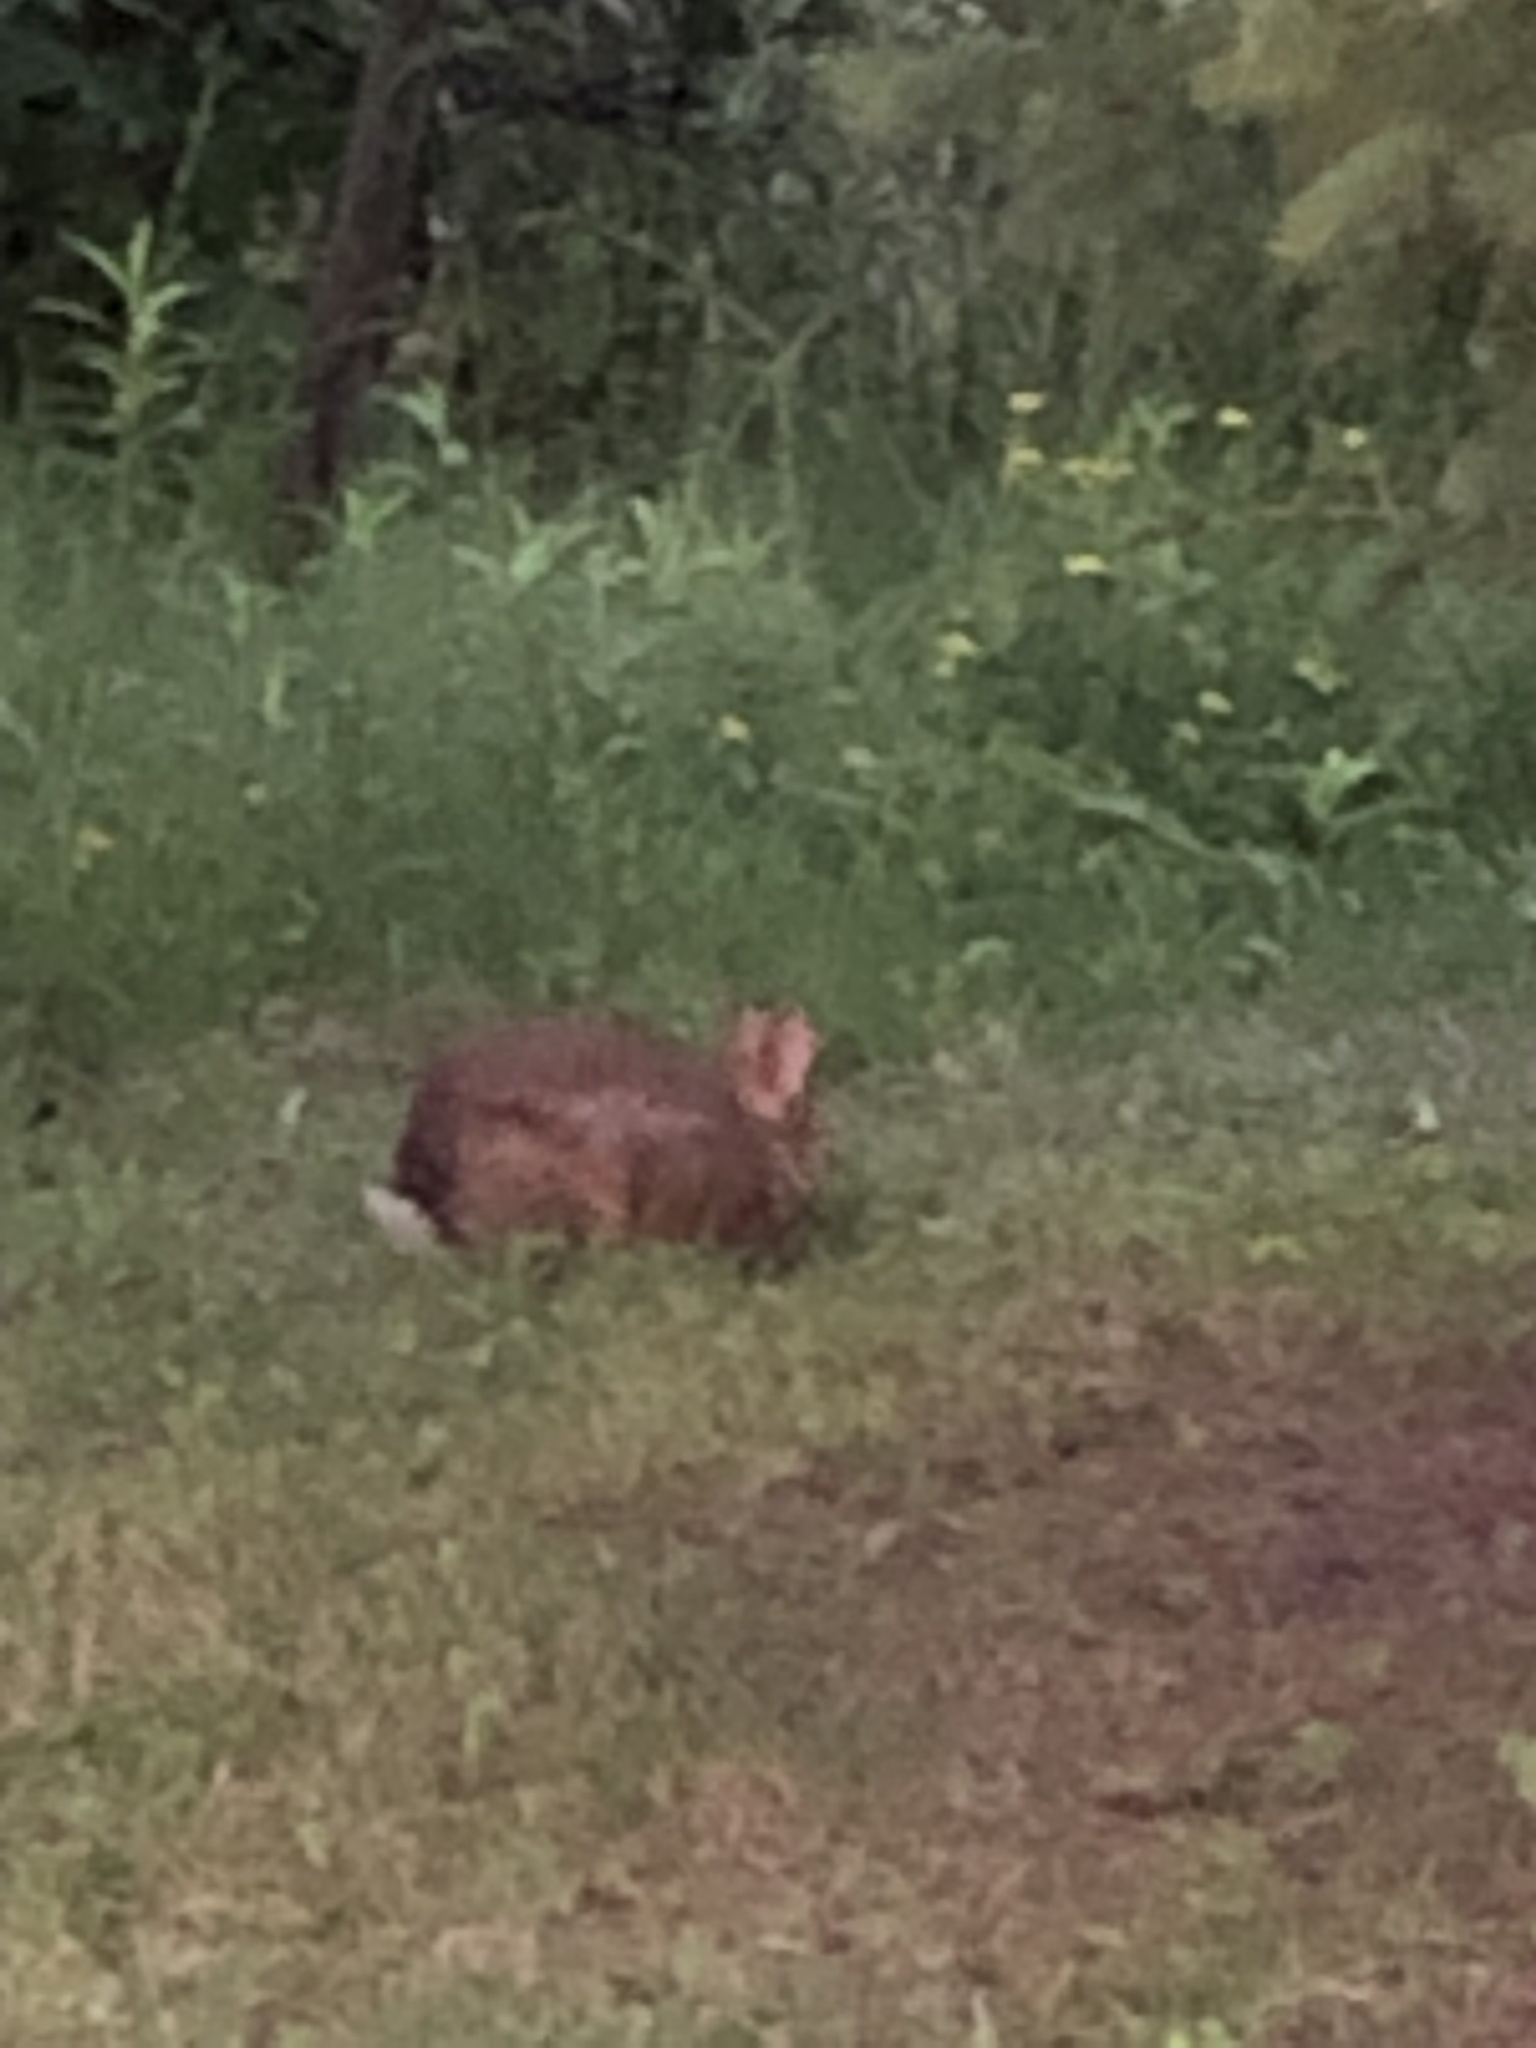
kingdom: Animalia
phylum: Chordata
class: Mammalia
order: Lagomorpha
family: Leporidae
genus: Sylvilagus
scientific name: Sylvilagus floridanus
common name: Eastern cottontail
